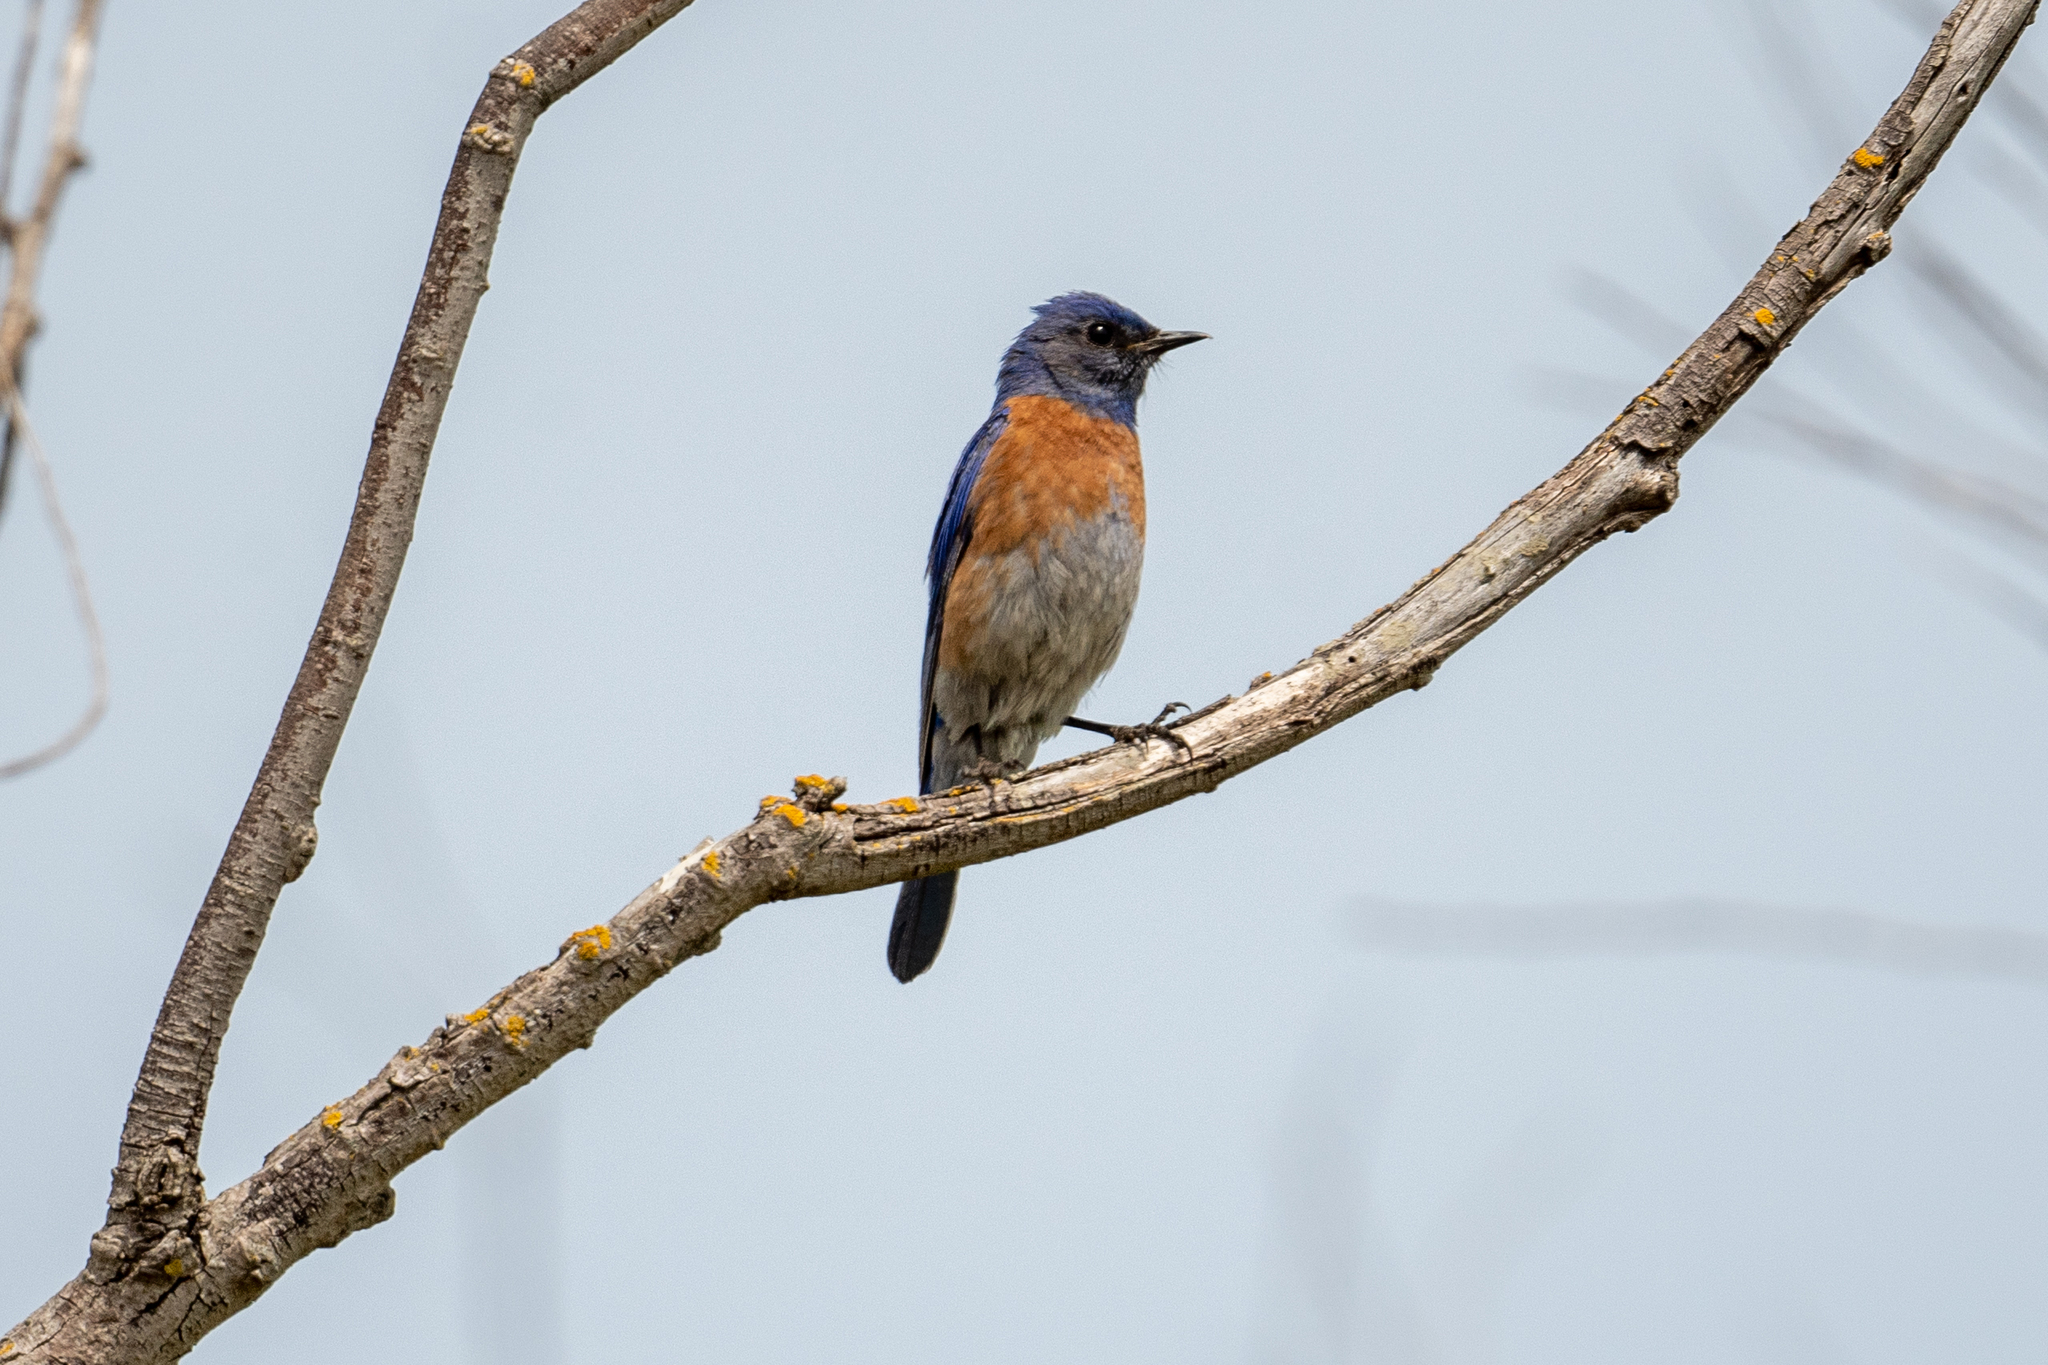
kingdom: Animalia
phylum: Chordata
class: Aves
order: Passeriformes
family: Turdidae
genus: Sialia
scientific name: Sialia mexicana
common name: Western bluebird
